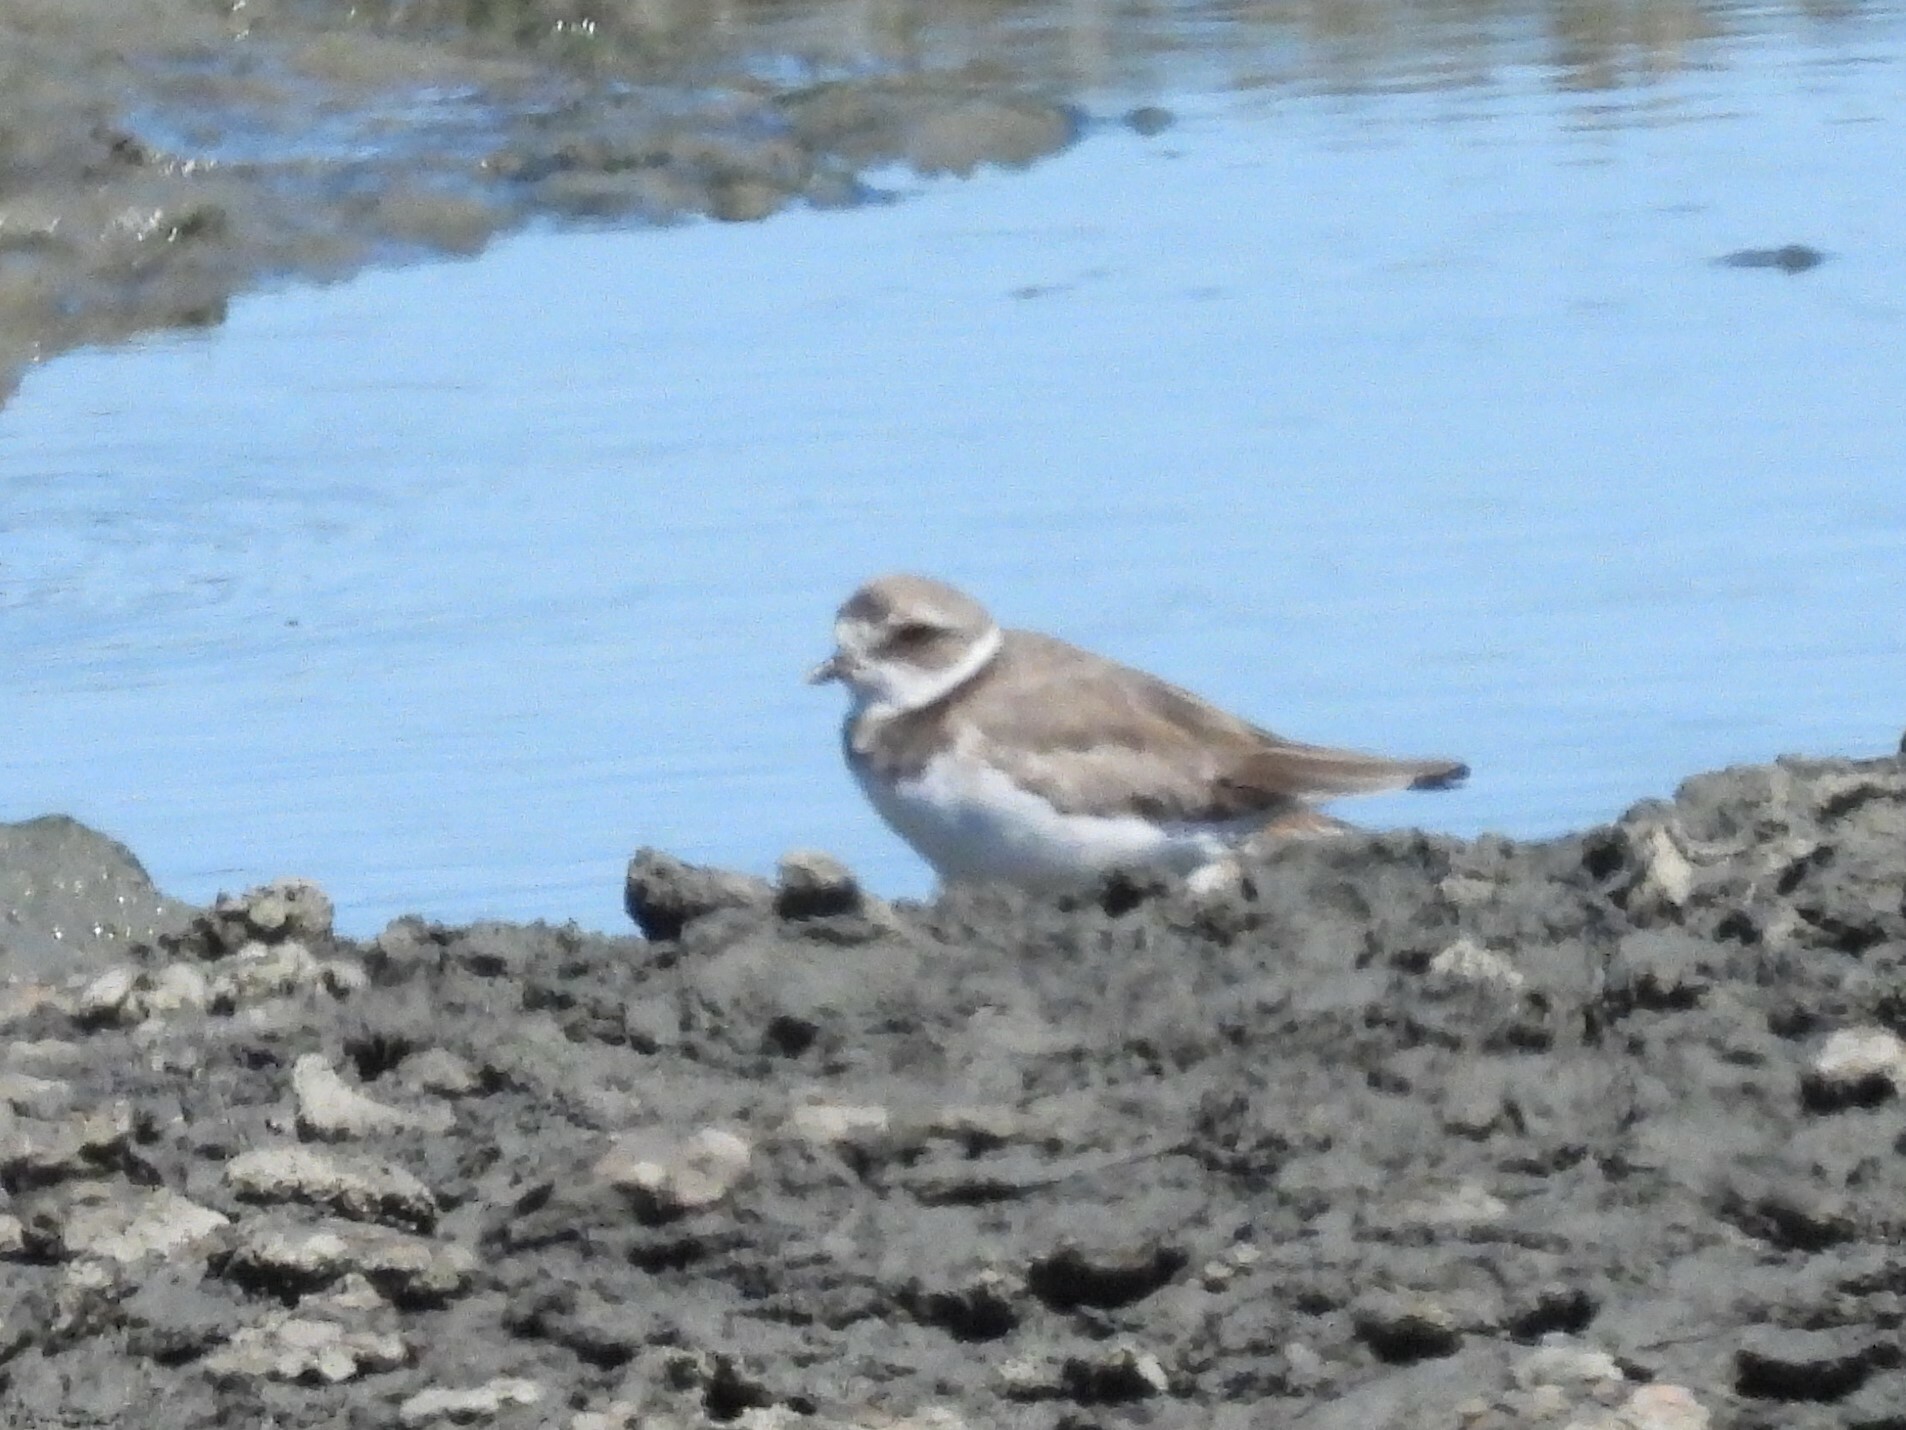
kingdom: Animalia
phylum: Chordata
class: Aves
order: Charadriiformes
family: Charadriidae
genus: Charadrius
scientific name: Charadrius semipalmatus
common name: Semipalmated plover
